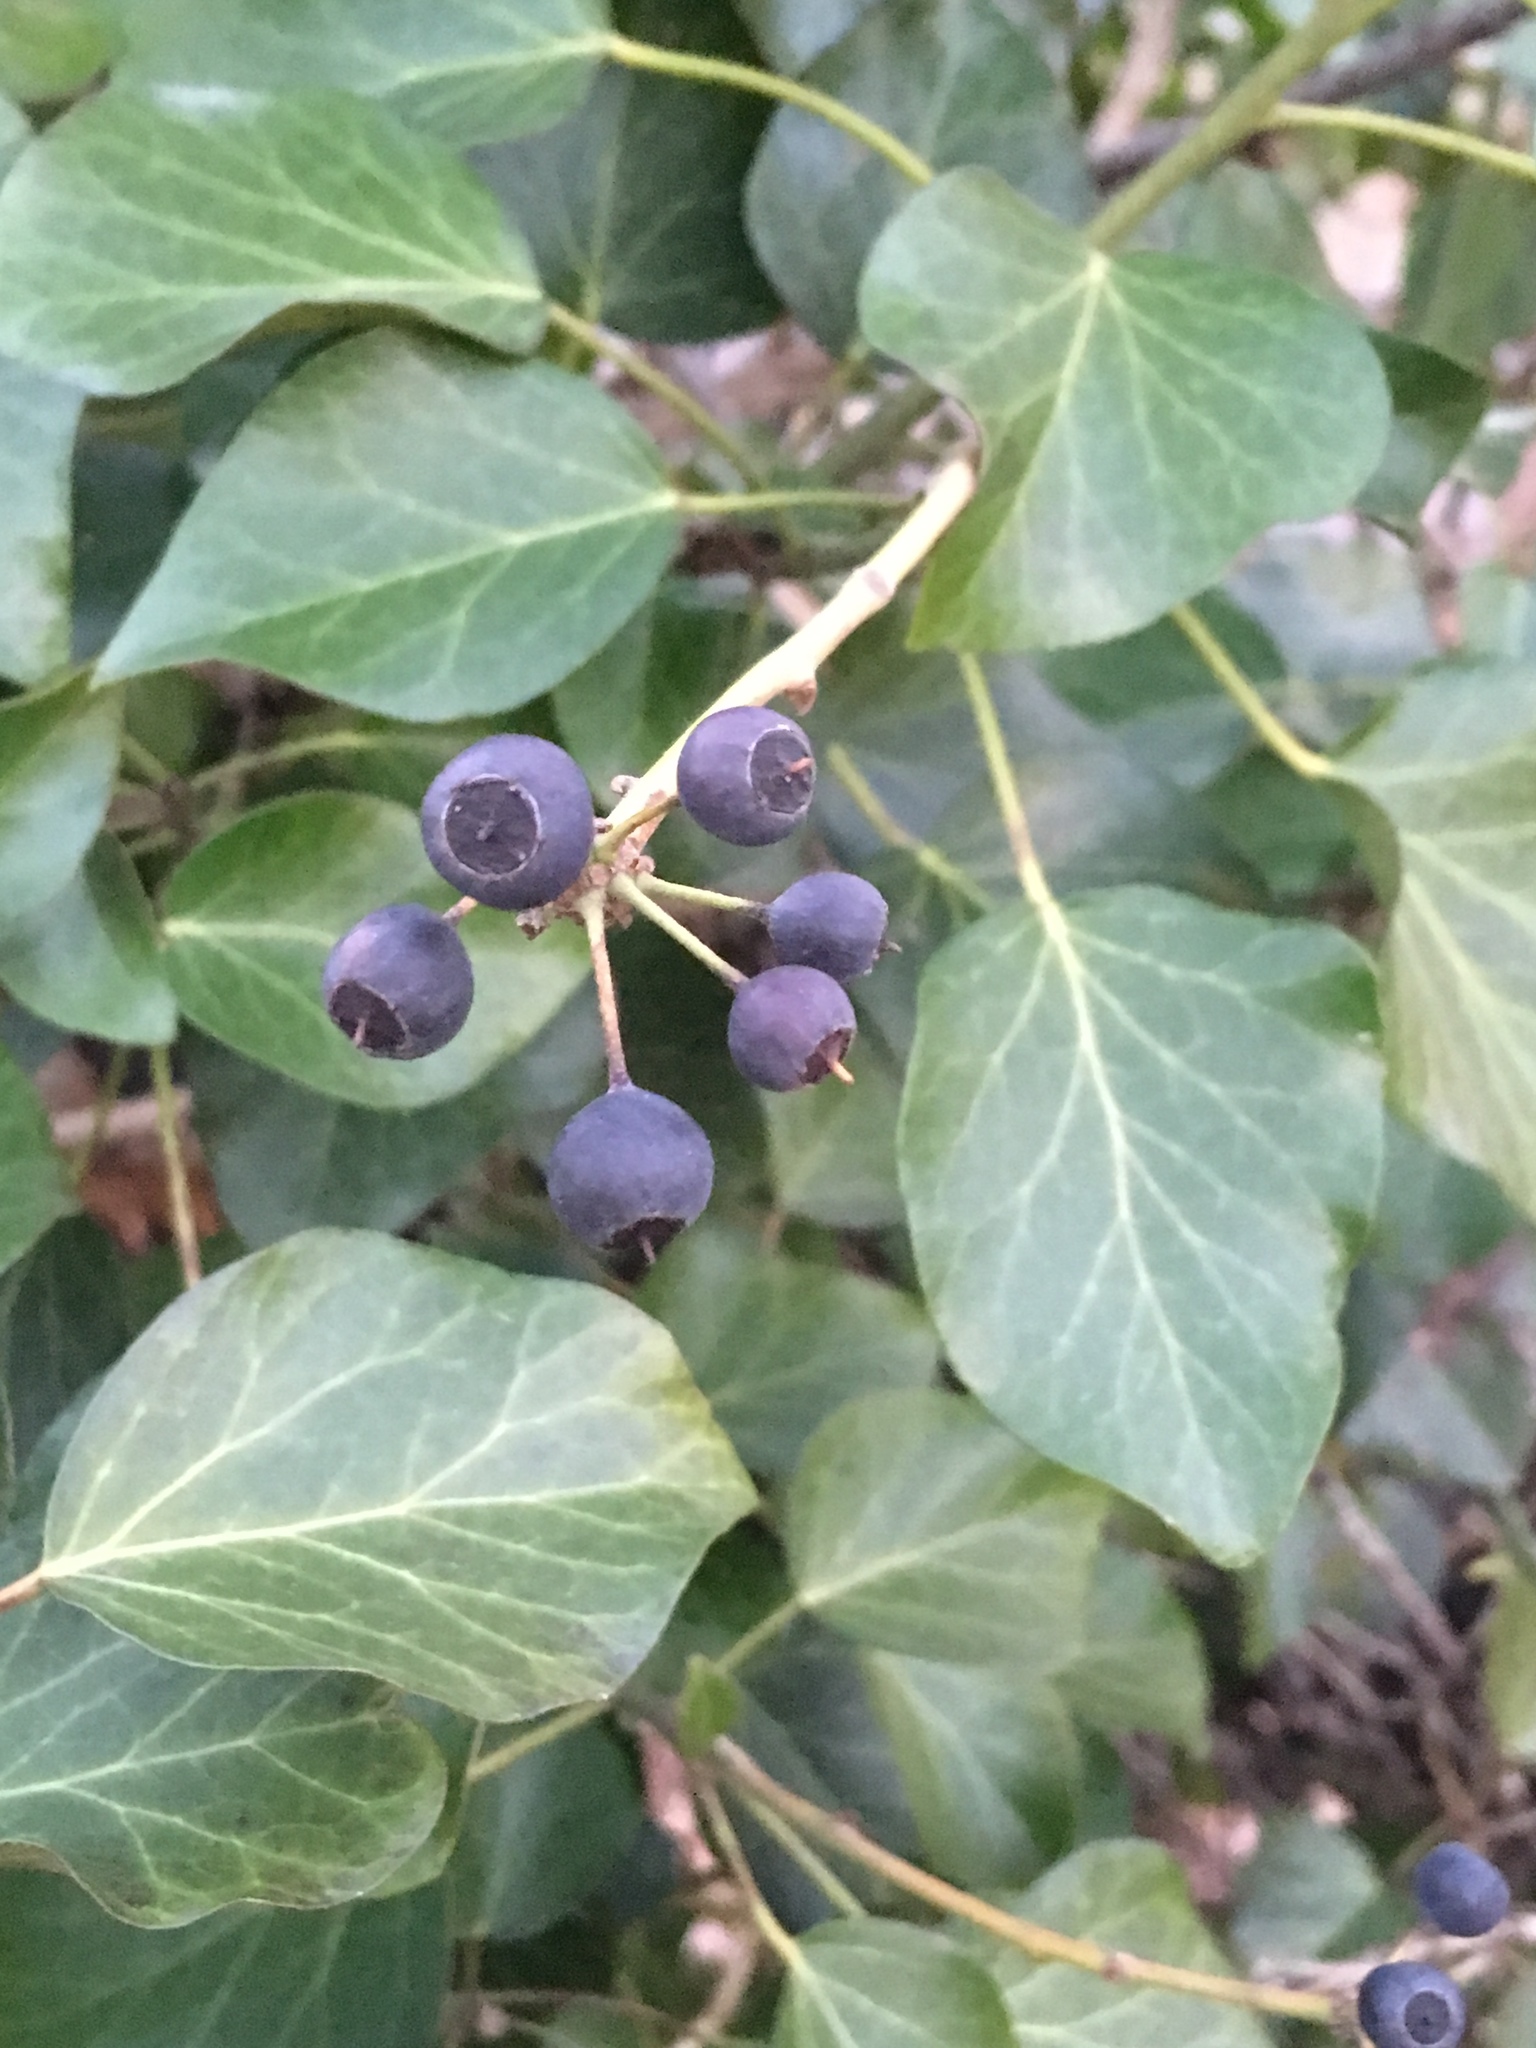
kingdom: Plantae
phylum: Tracheophyta
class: Magnoliopsida
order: Apiales
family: Araliaceae
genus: Hedera
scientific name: Hedera helix
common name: Ivy
